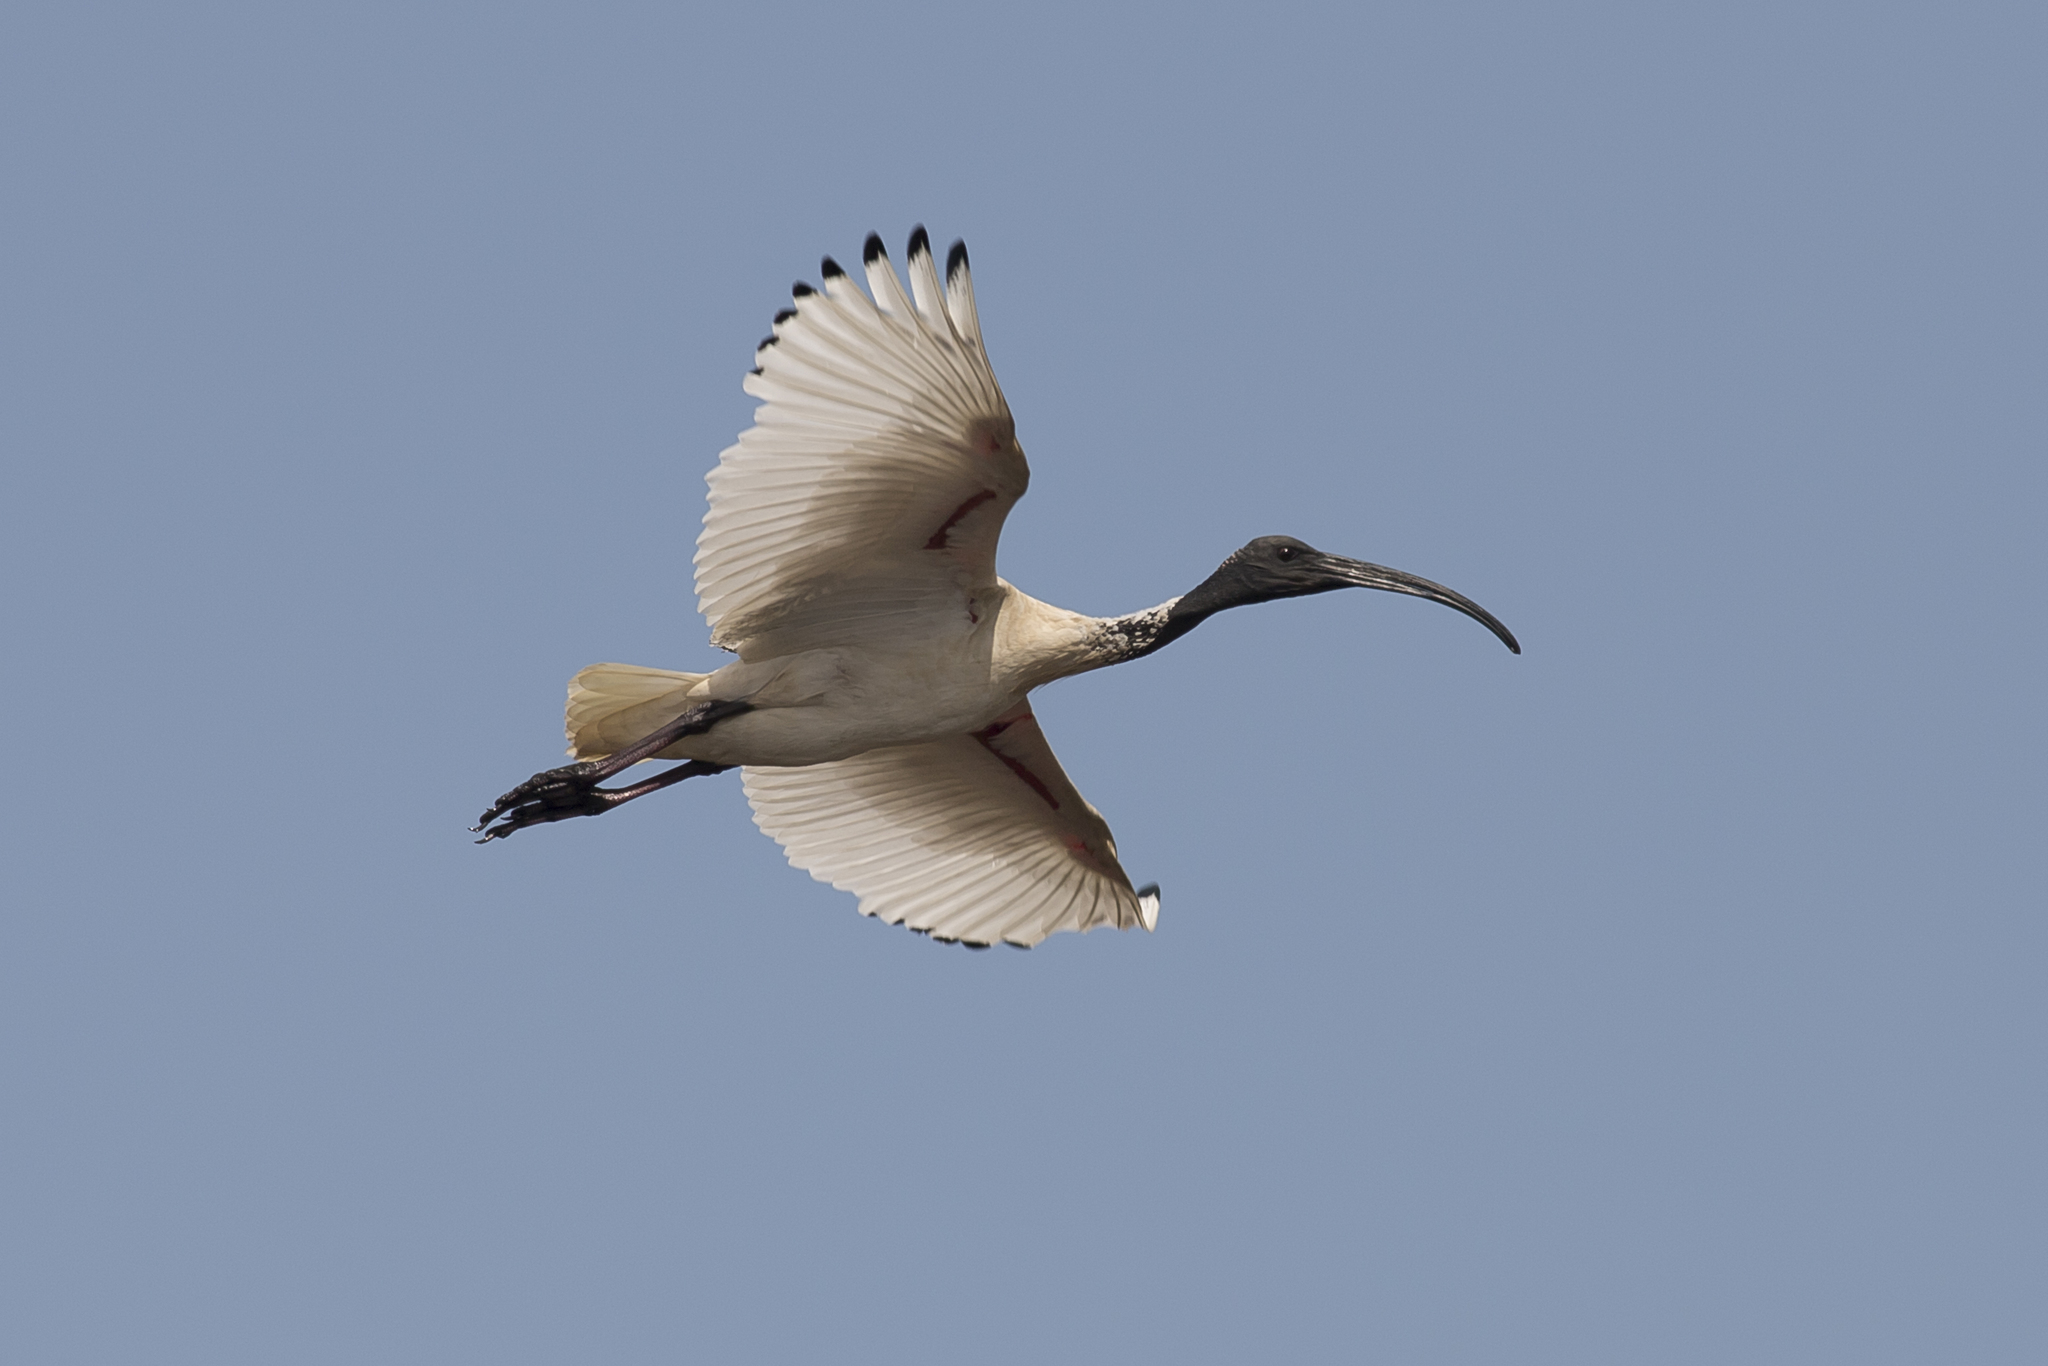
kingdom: Animalia
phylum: Chordata
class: Aves
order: Pelecaniformes
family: Threskiornithidae
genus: Threskiornis
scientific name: Threskiornis molucca
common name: Australian white ibis
